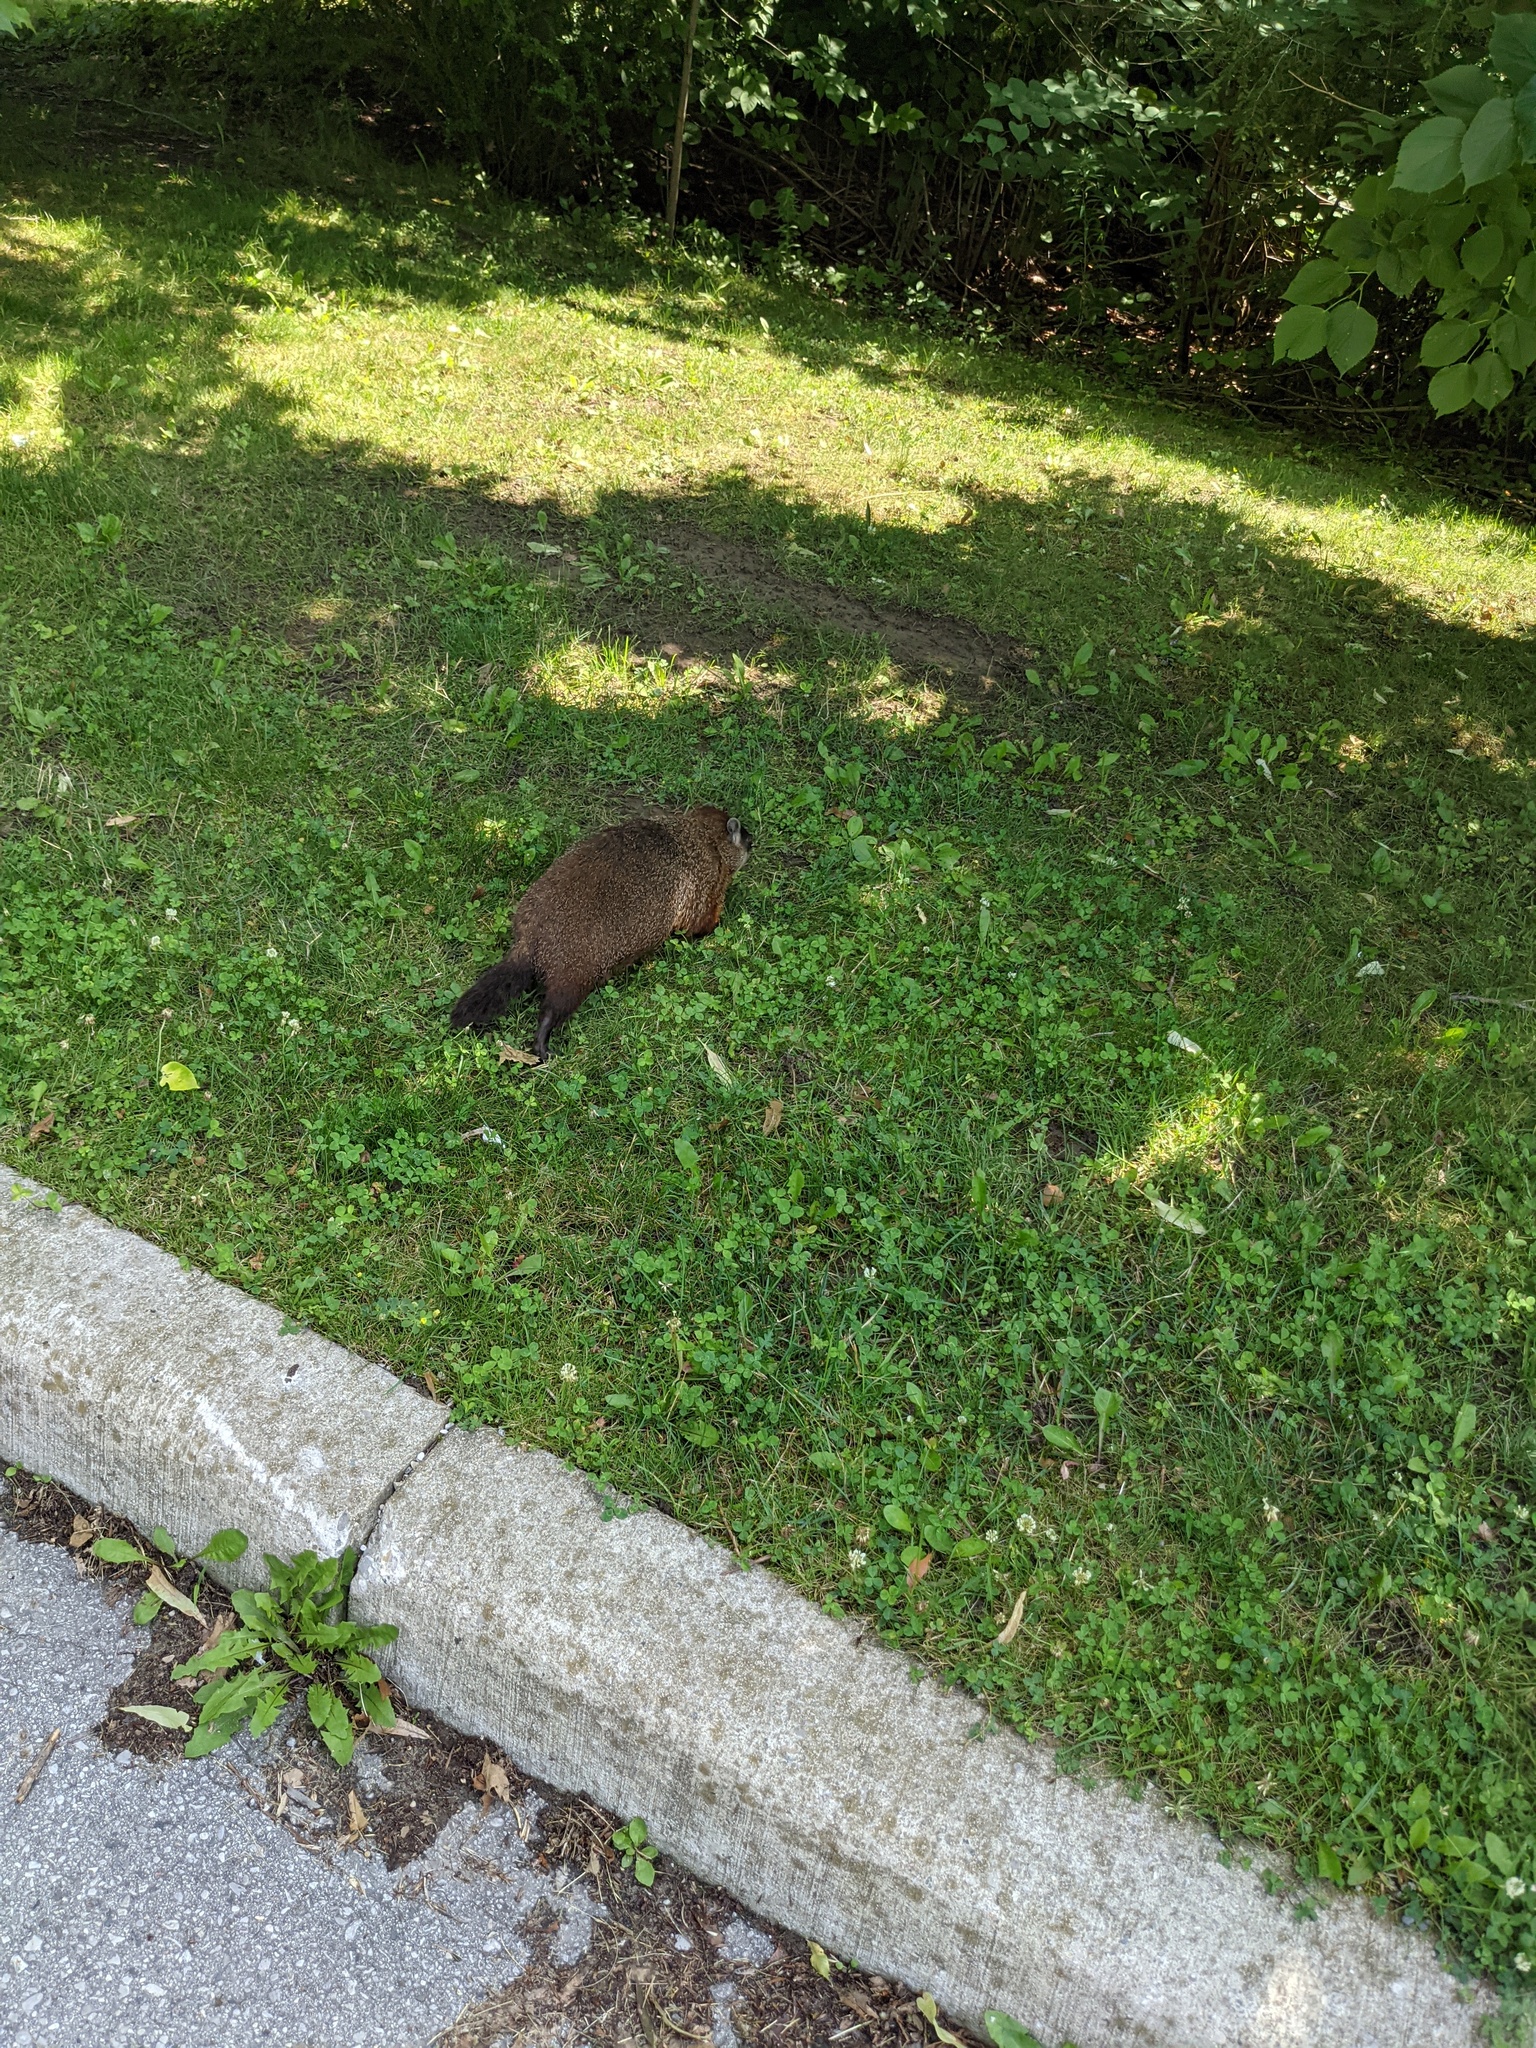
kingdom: Animalia
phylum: Chordata
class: Mammalia
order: Rodentia
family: Sciuridae
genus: Marmota
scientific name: Marmota monax
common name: Groundhog
